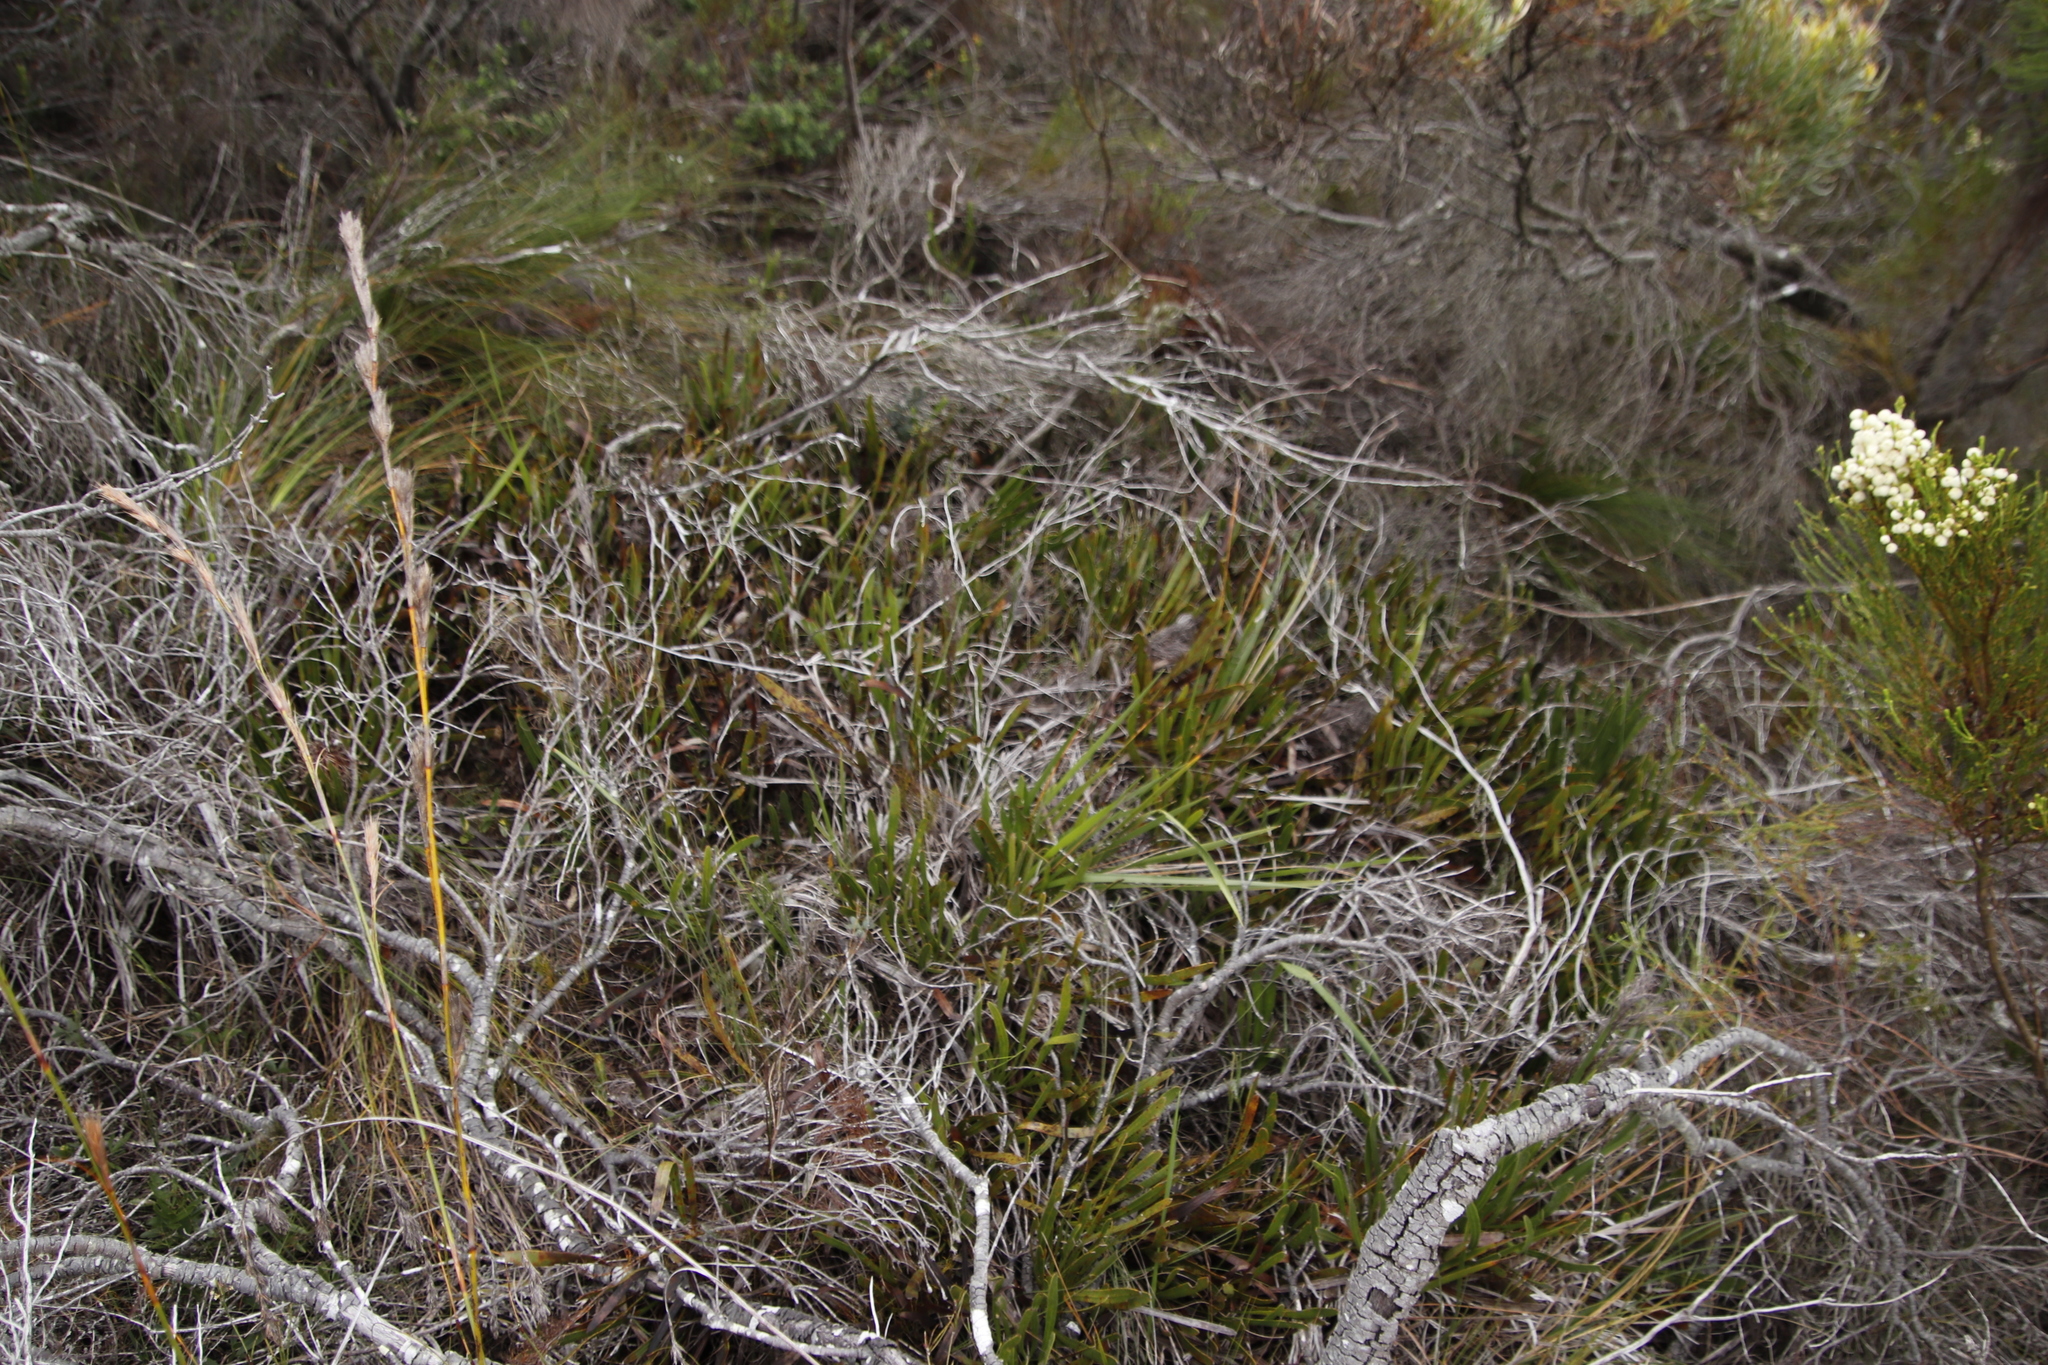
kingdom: Plantae
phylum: Tracheophyta
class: Magnoliopsida
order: Proteales
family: Proteaceae
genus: Protea
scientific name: Protea aspera
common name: Rough-leaf sugarbush
